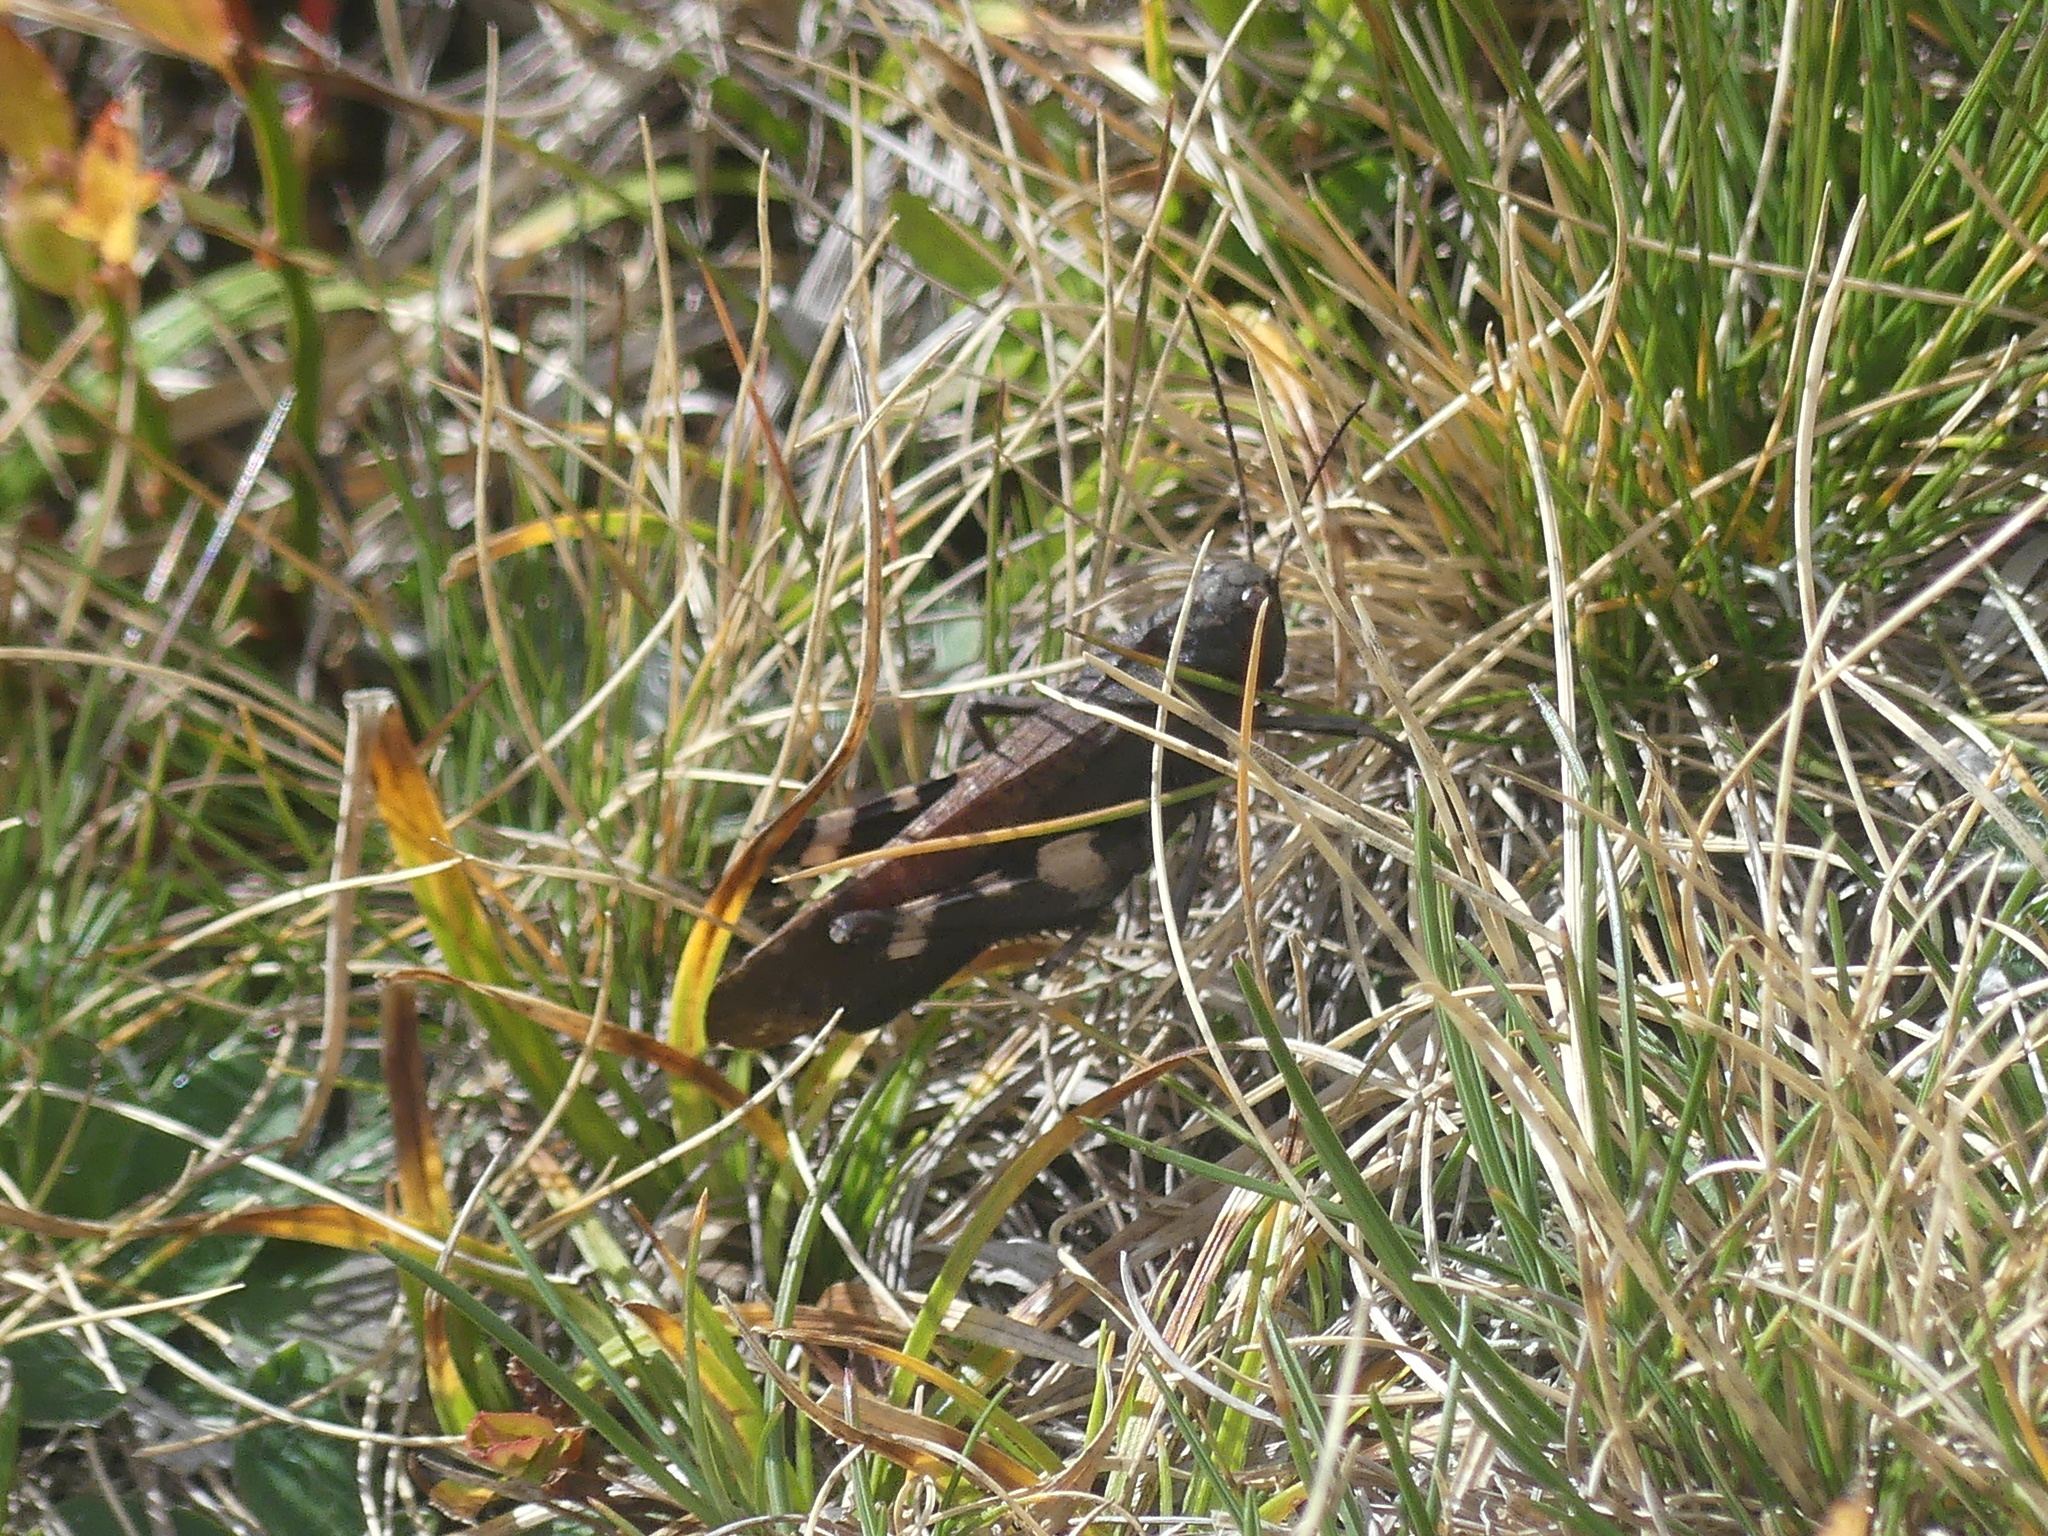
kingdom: Animalia
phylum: Arthropoda
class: Insecta
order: Orthoptera
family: Acrididae
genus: Psophus
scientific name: Psophus stridulus
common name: Rattle grasshopper
